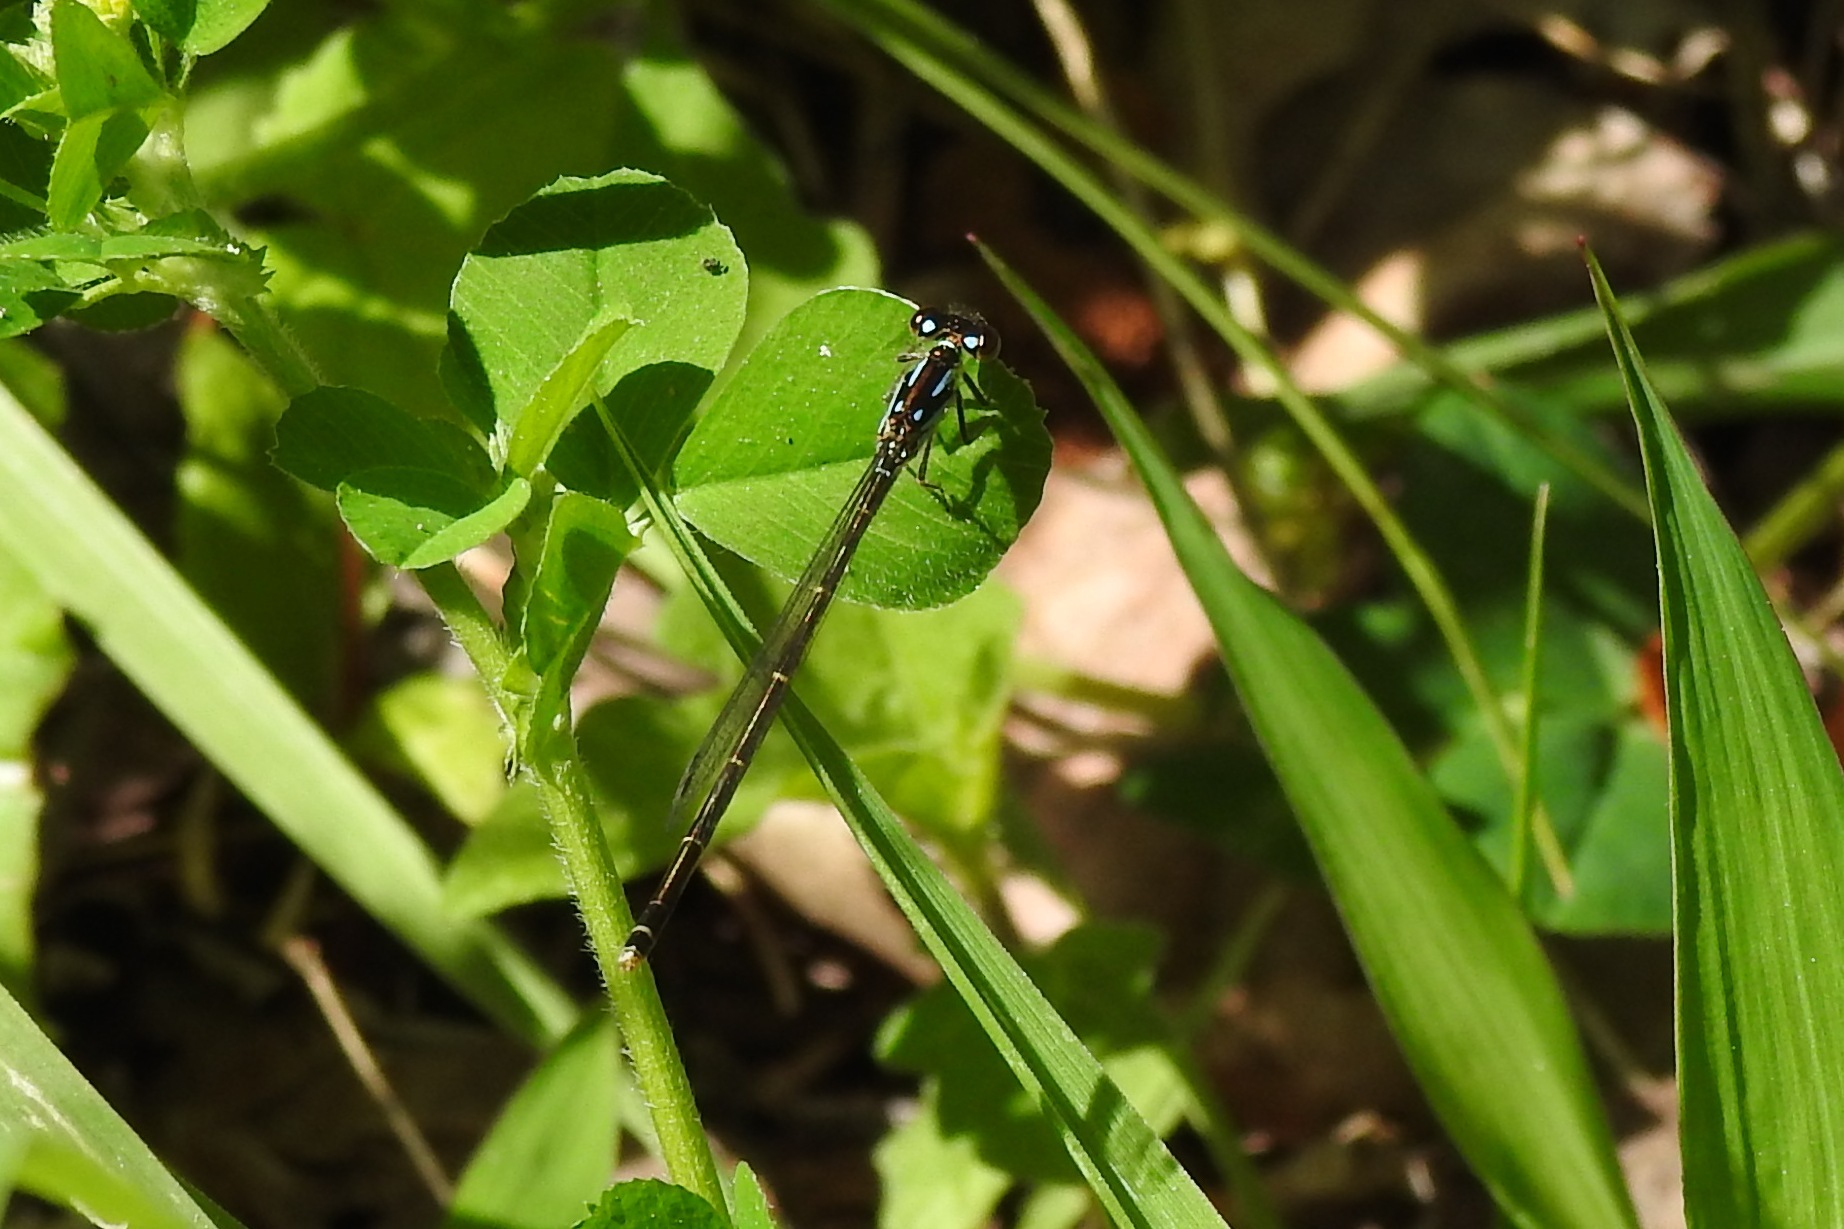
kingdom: Animalia
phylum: Arthropoda
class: Insecta
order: Odonata
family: Coenagrionidae
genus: Ischnura
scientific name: Ischnura posita
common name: Fragile forktail
